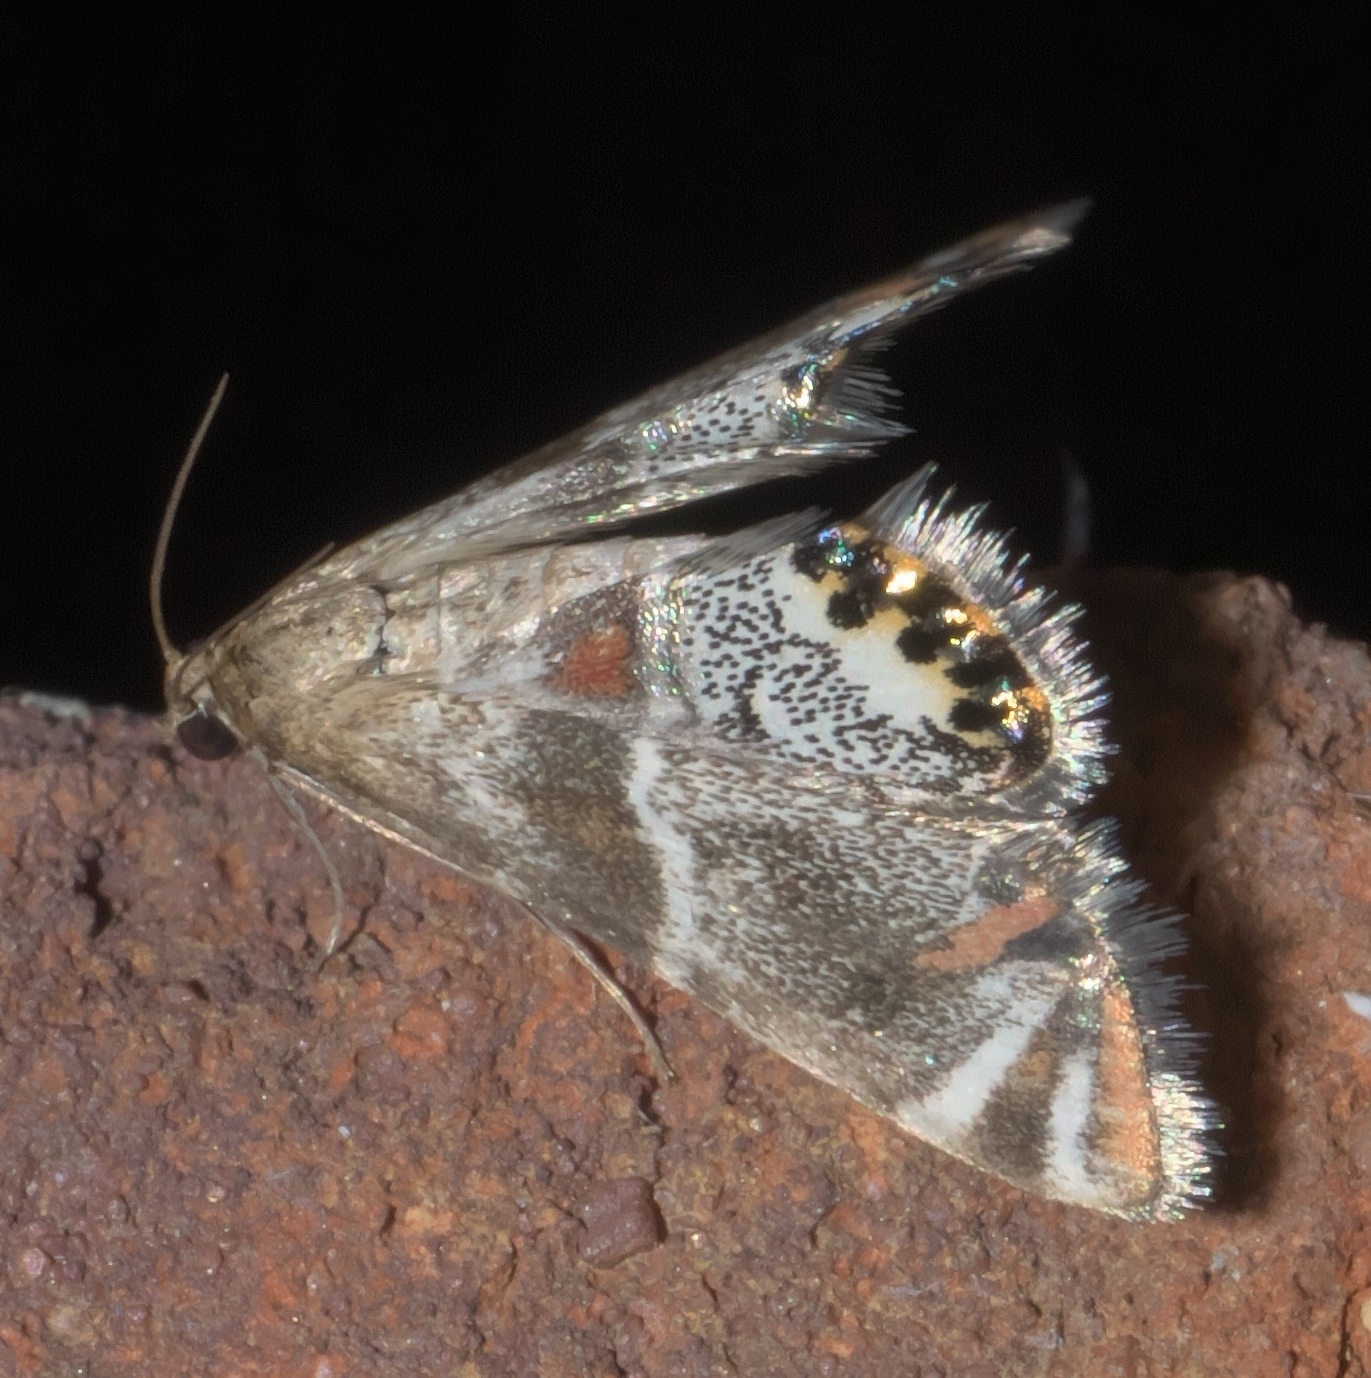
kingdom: Animalia
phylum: Arthropoda
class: Insecta
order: Lepidoptera
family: Crambidae
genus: Petrophila
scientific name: Petrophila jaliscalis
